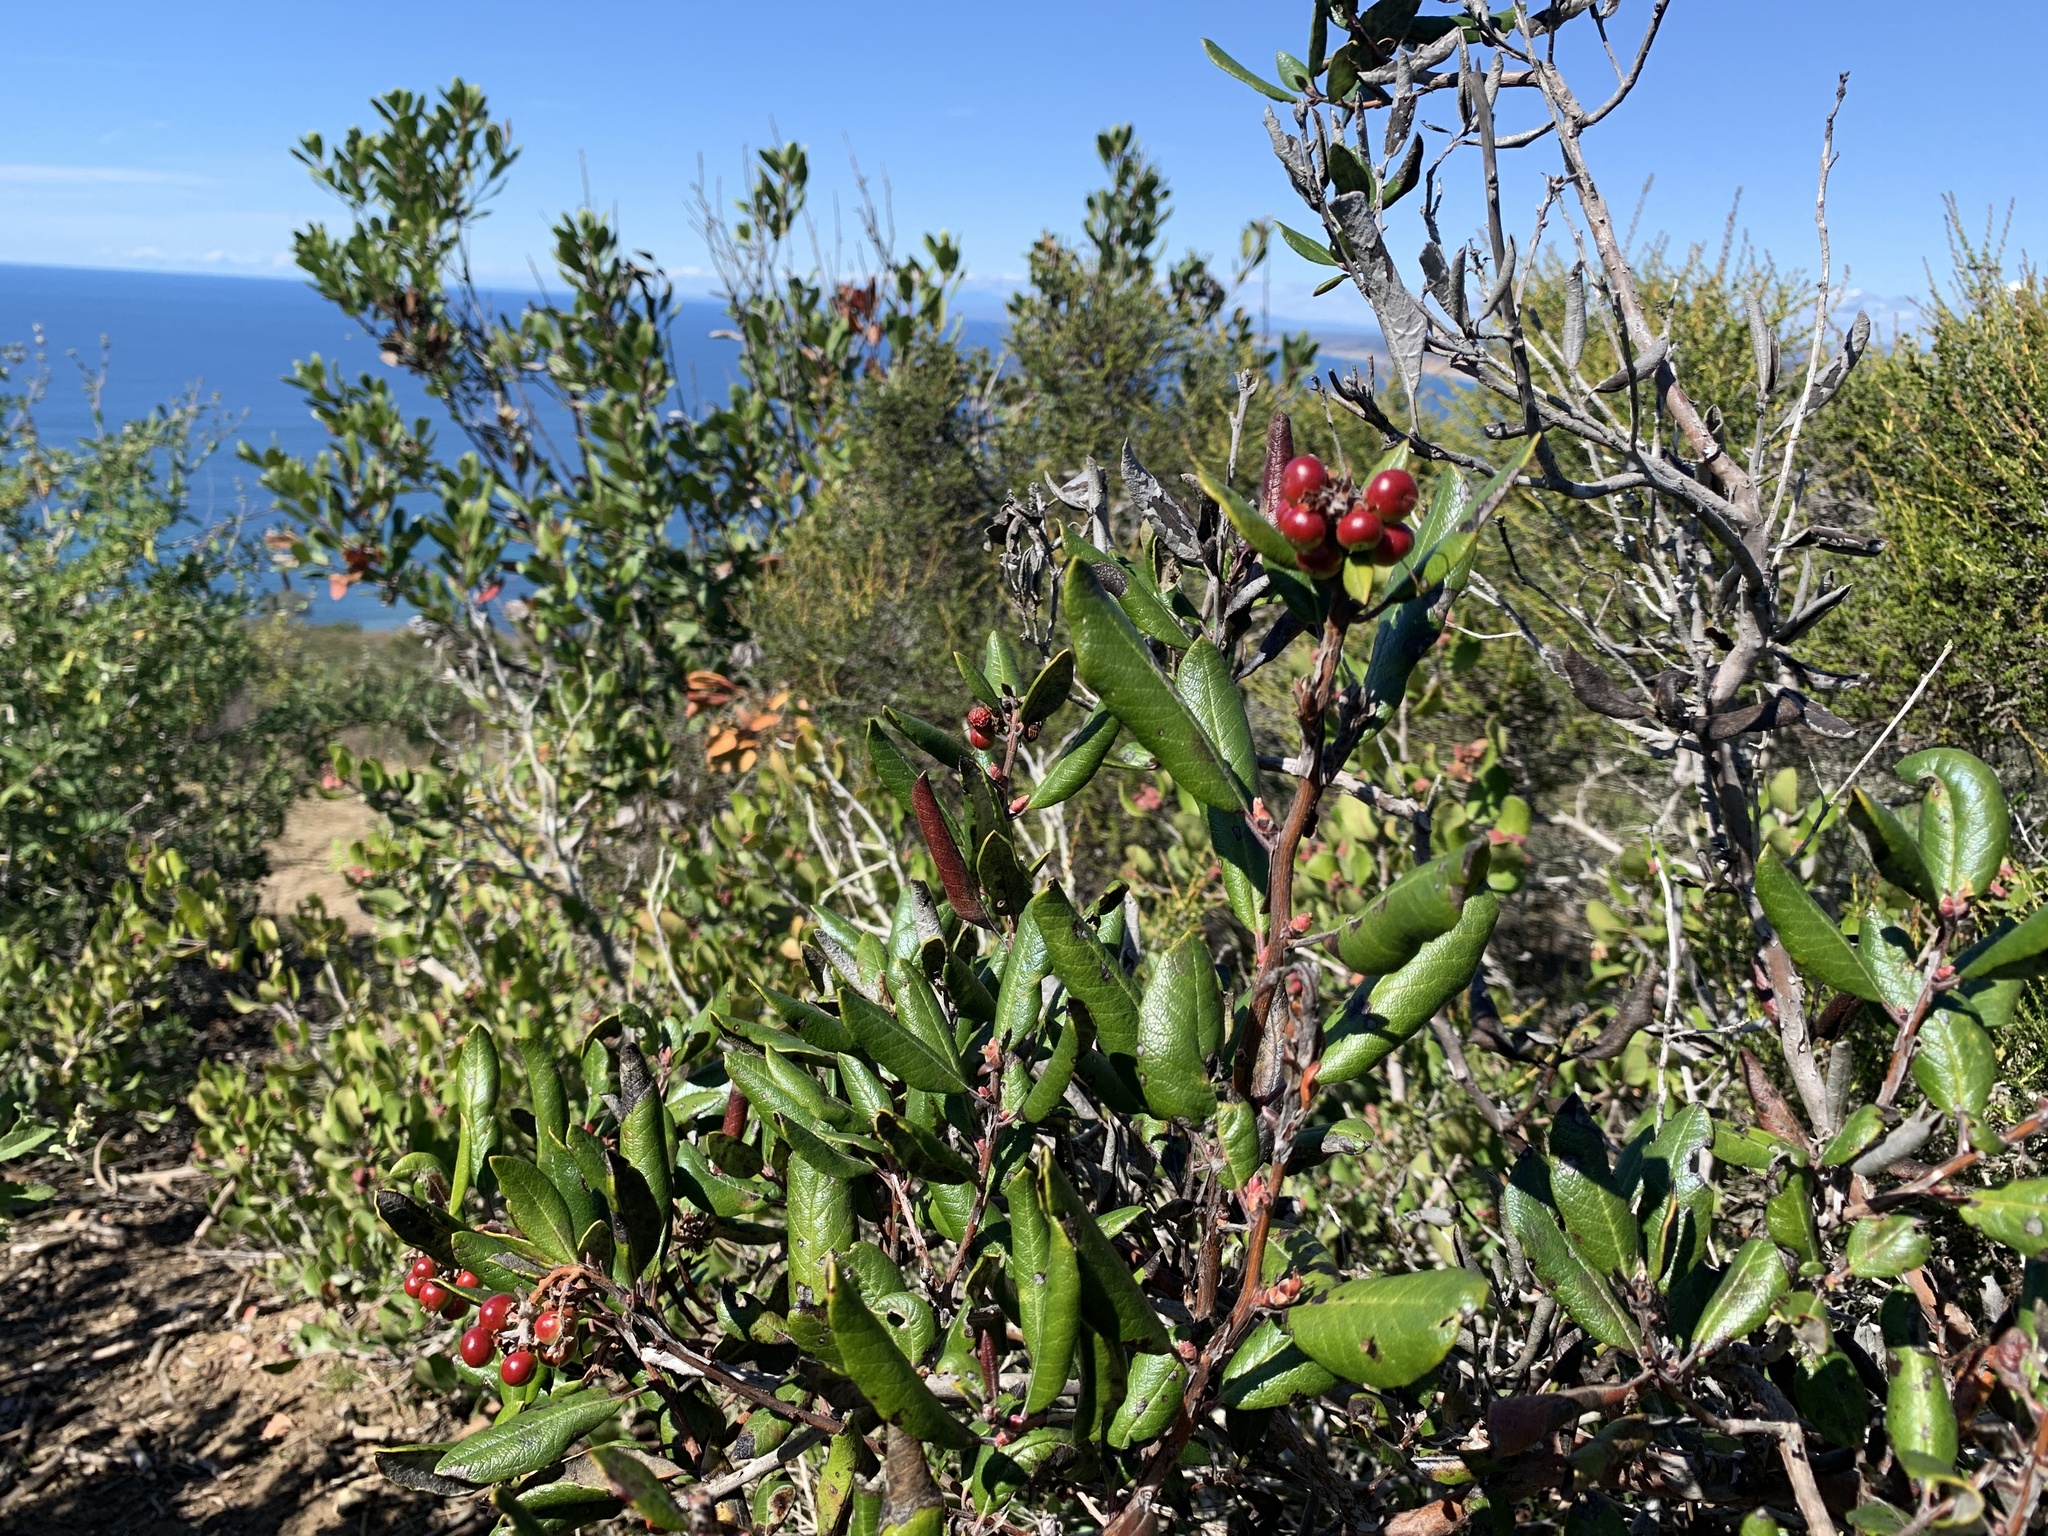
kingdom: Plantae
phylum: Tracheophyta
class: Magnoliopsida
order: Ericales
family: Ericaceae
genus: Arctostaphylos
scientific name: Arctostaphylos bicolor
